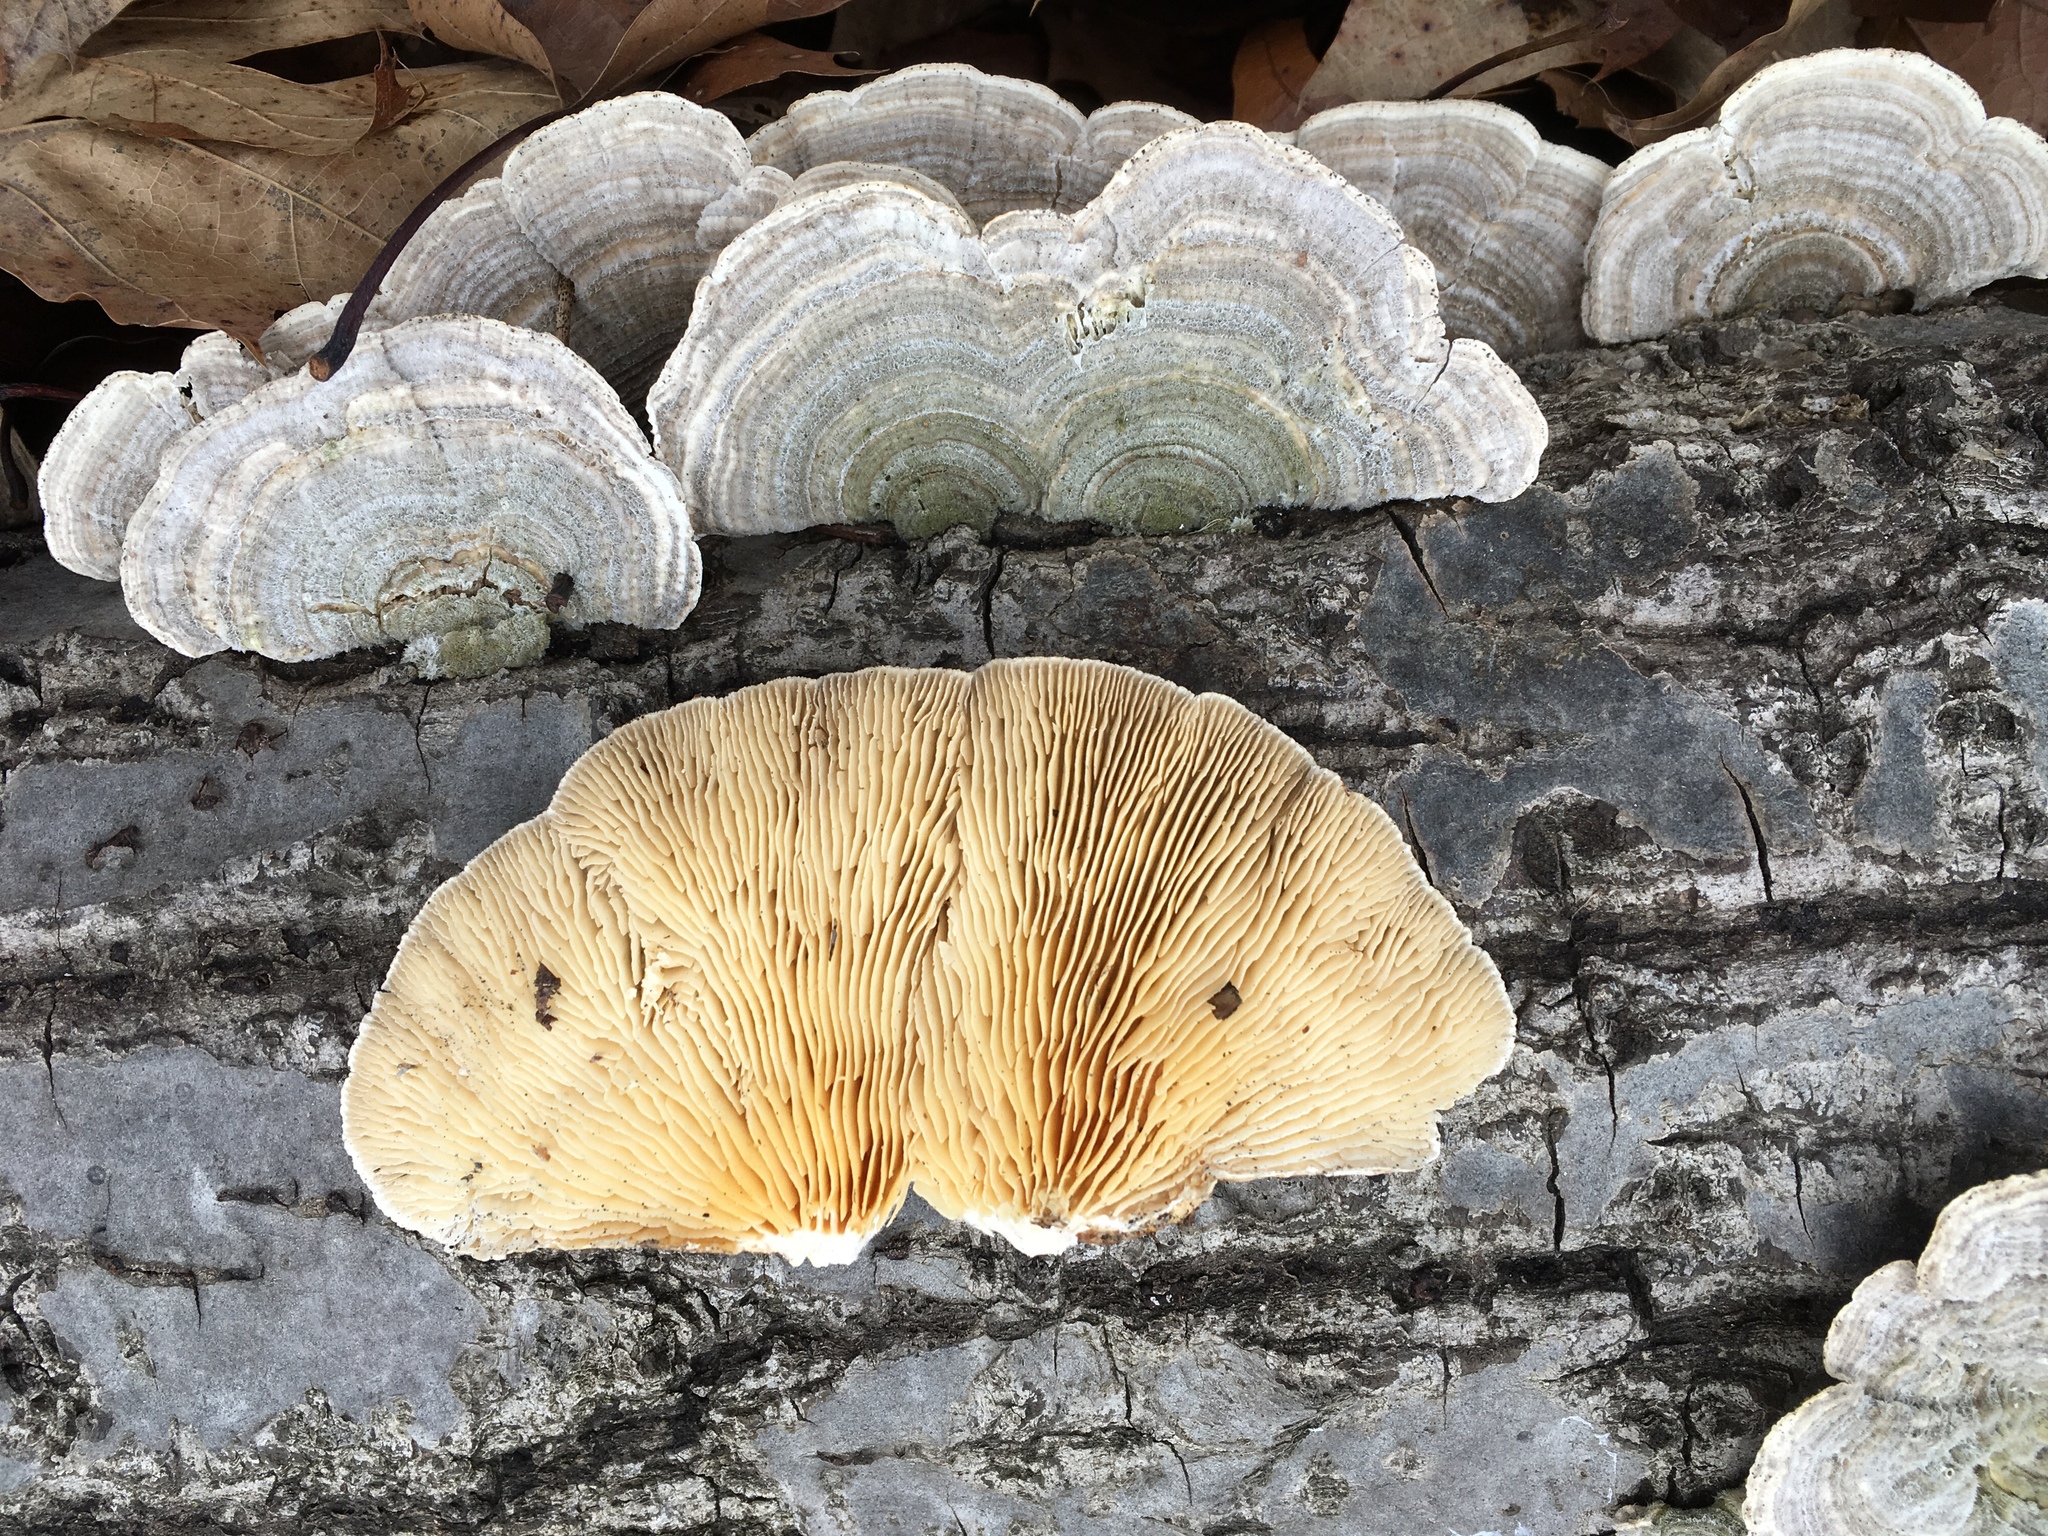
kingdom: Fungi
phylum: Basidiomycota
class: Agaricomycetes
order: Polyporales
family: Polyporaceae
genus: Lenzites
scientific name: Lenzites betulinus
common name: Birch mazegill
